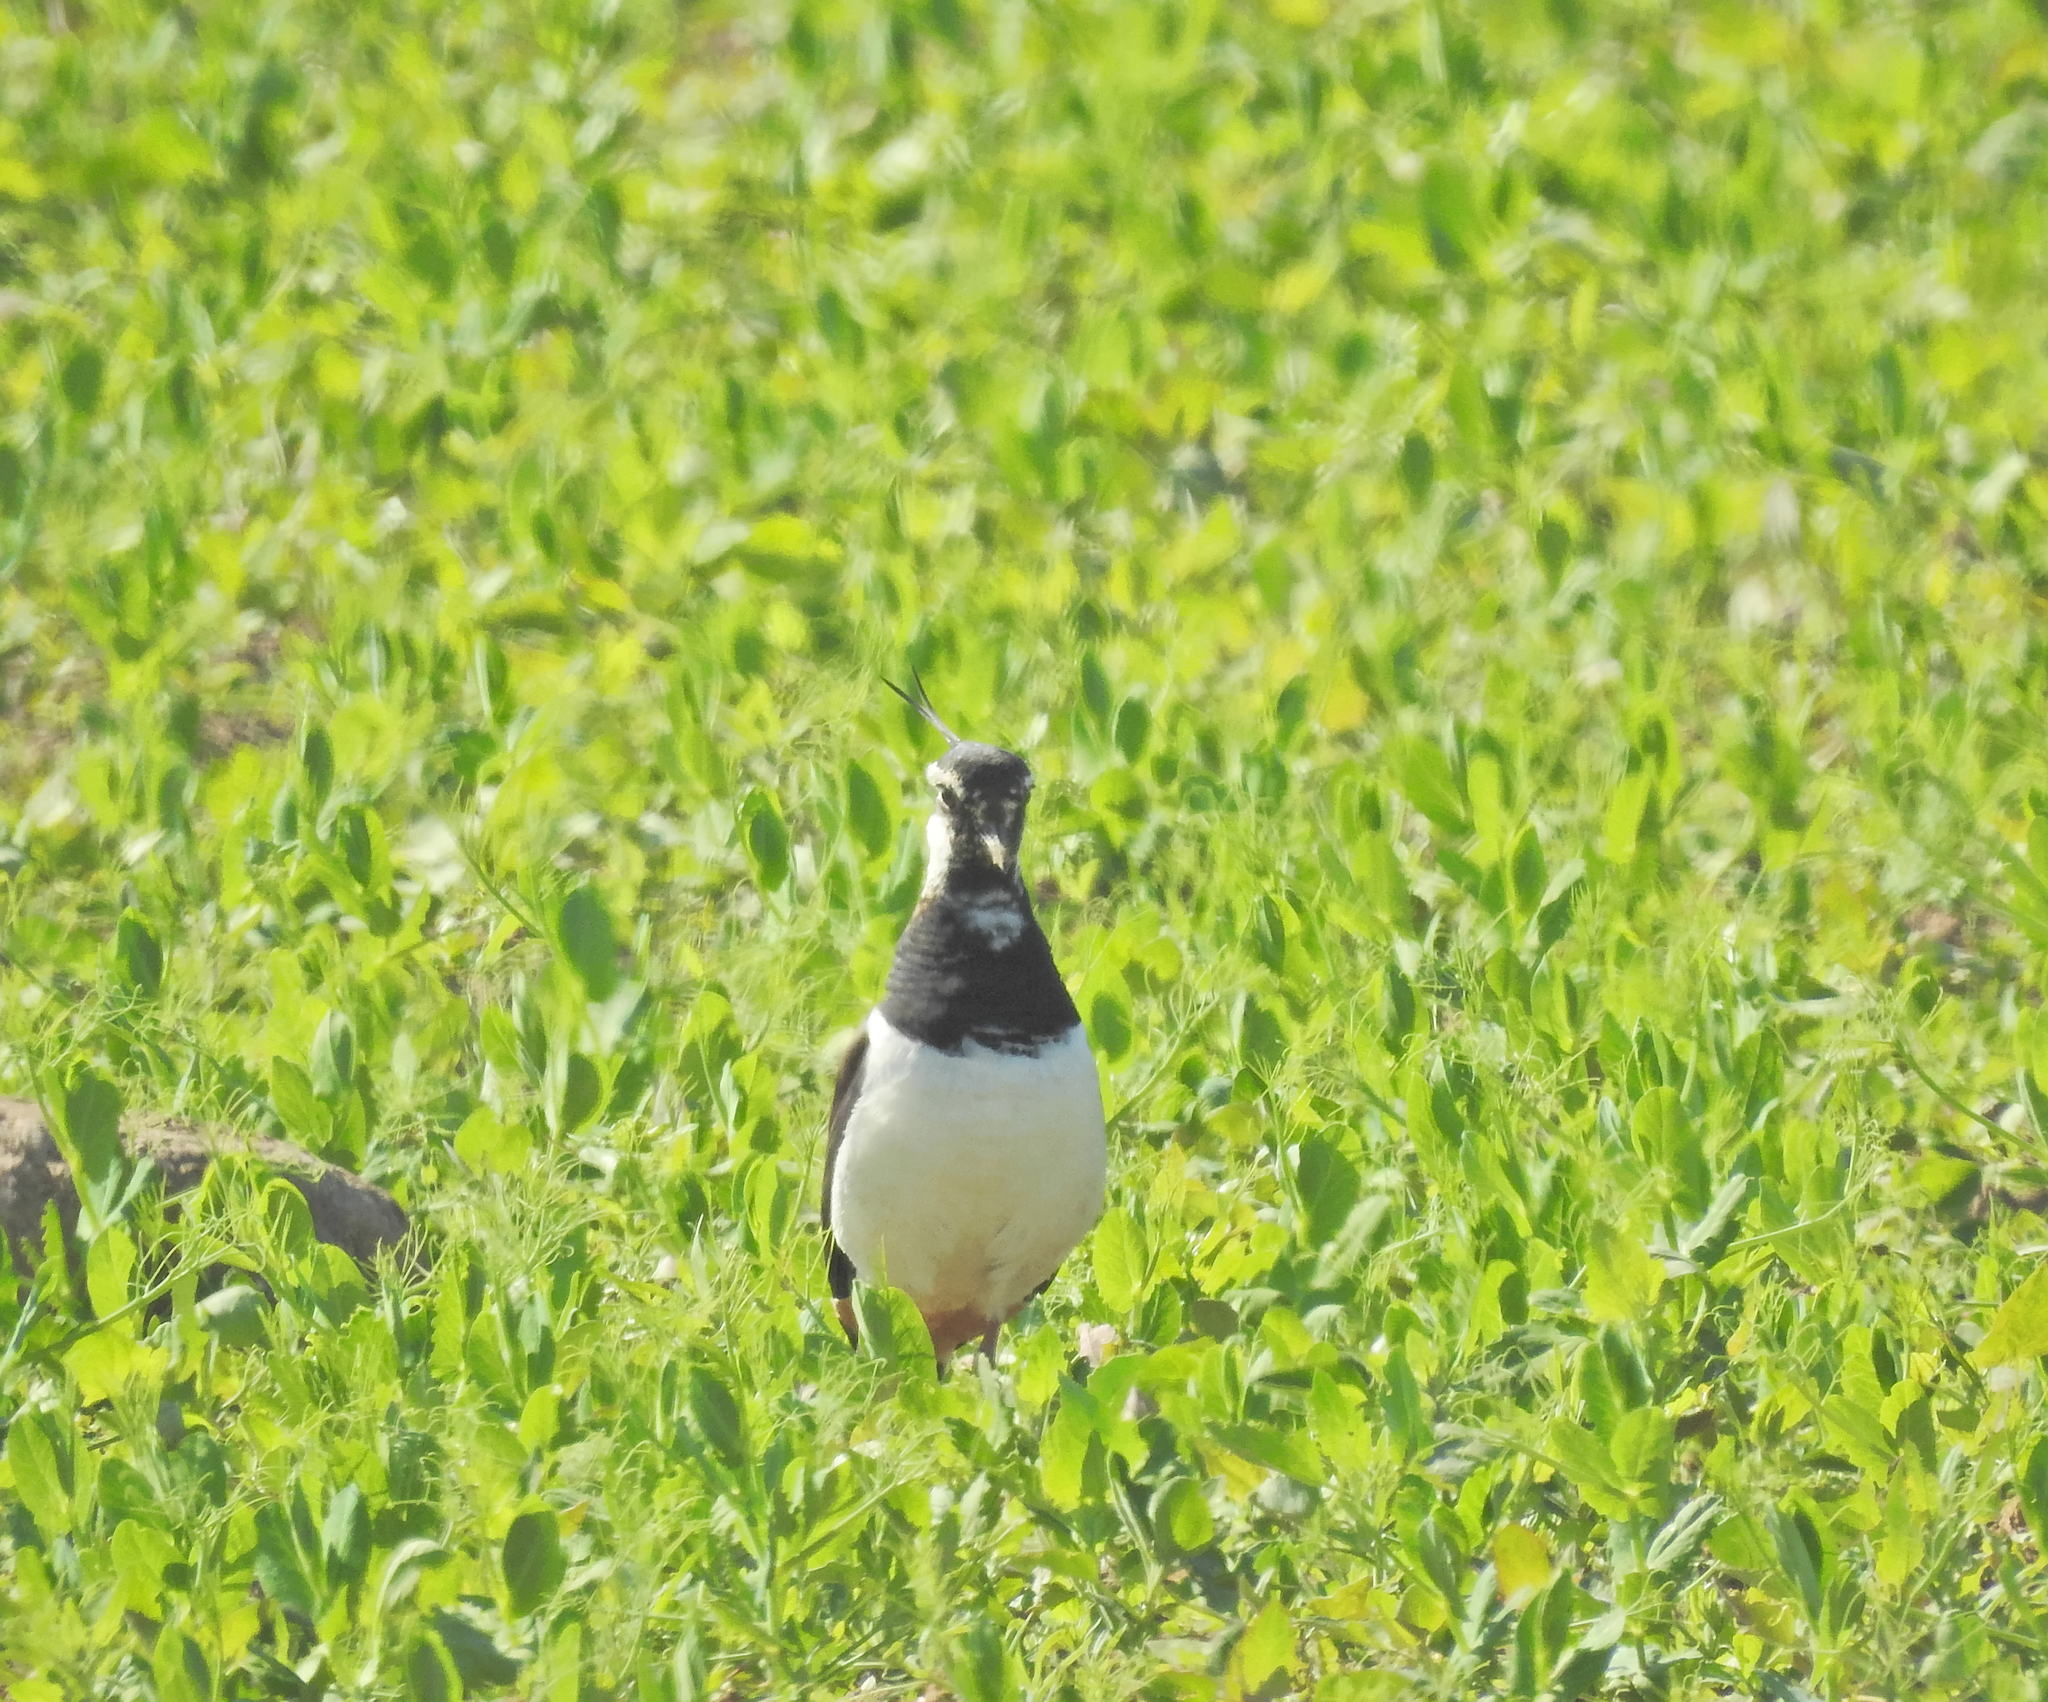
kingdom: Animalia
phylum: Chordata
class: Aves
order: Charadriiformes
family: Charadriidae
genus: Vanellus
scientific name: Vanellus vanellus
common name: Northern lapwing
